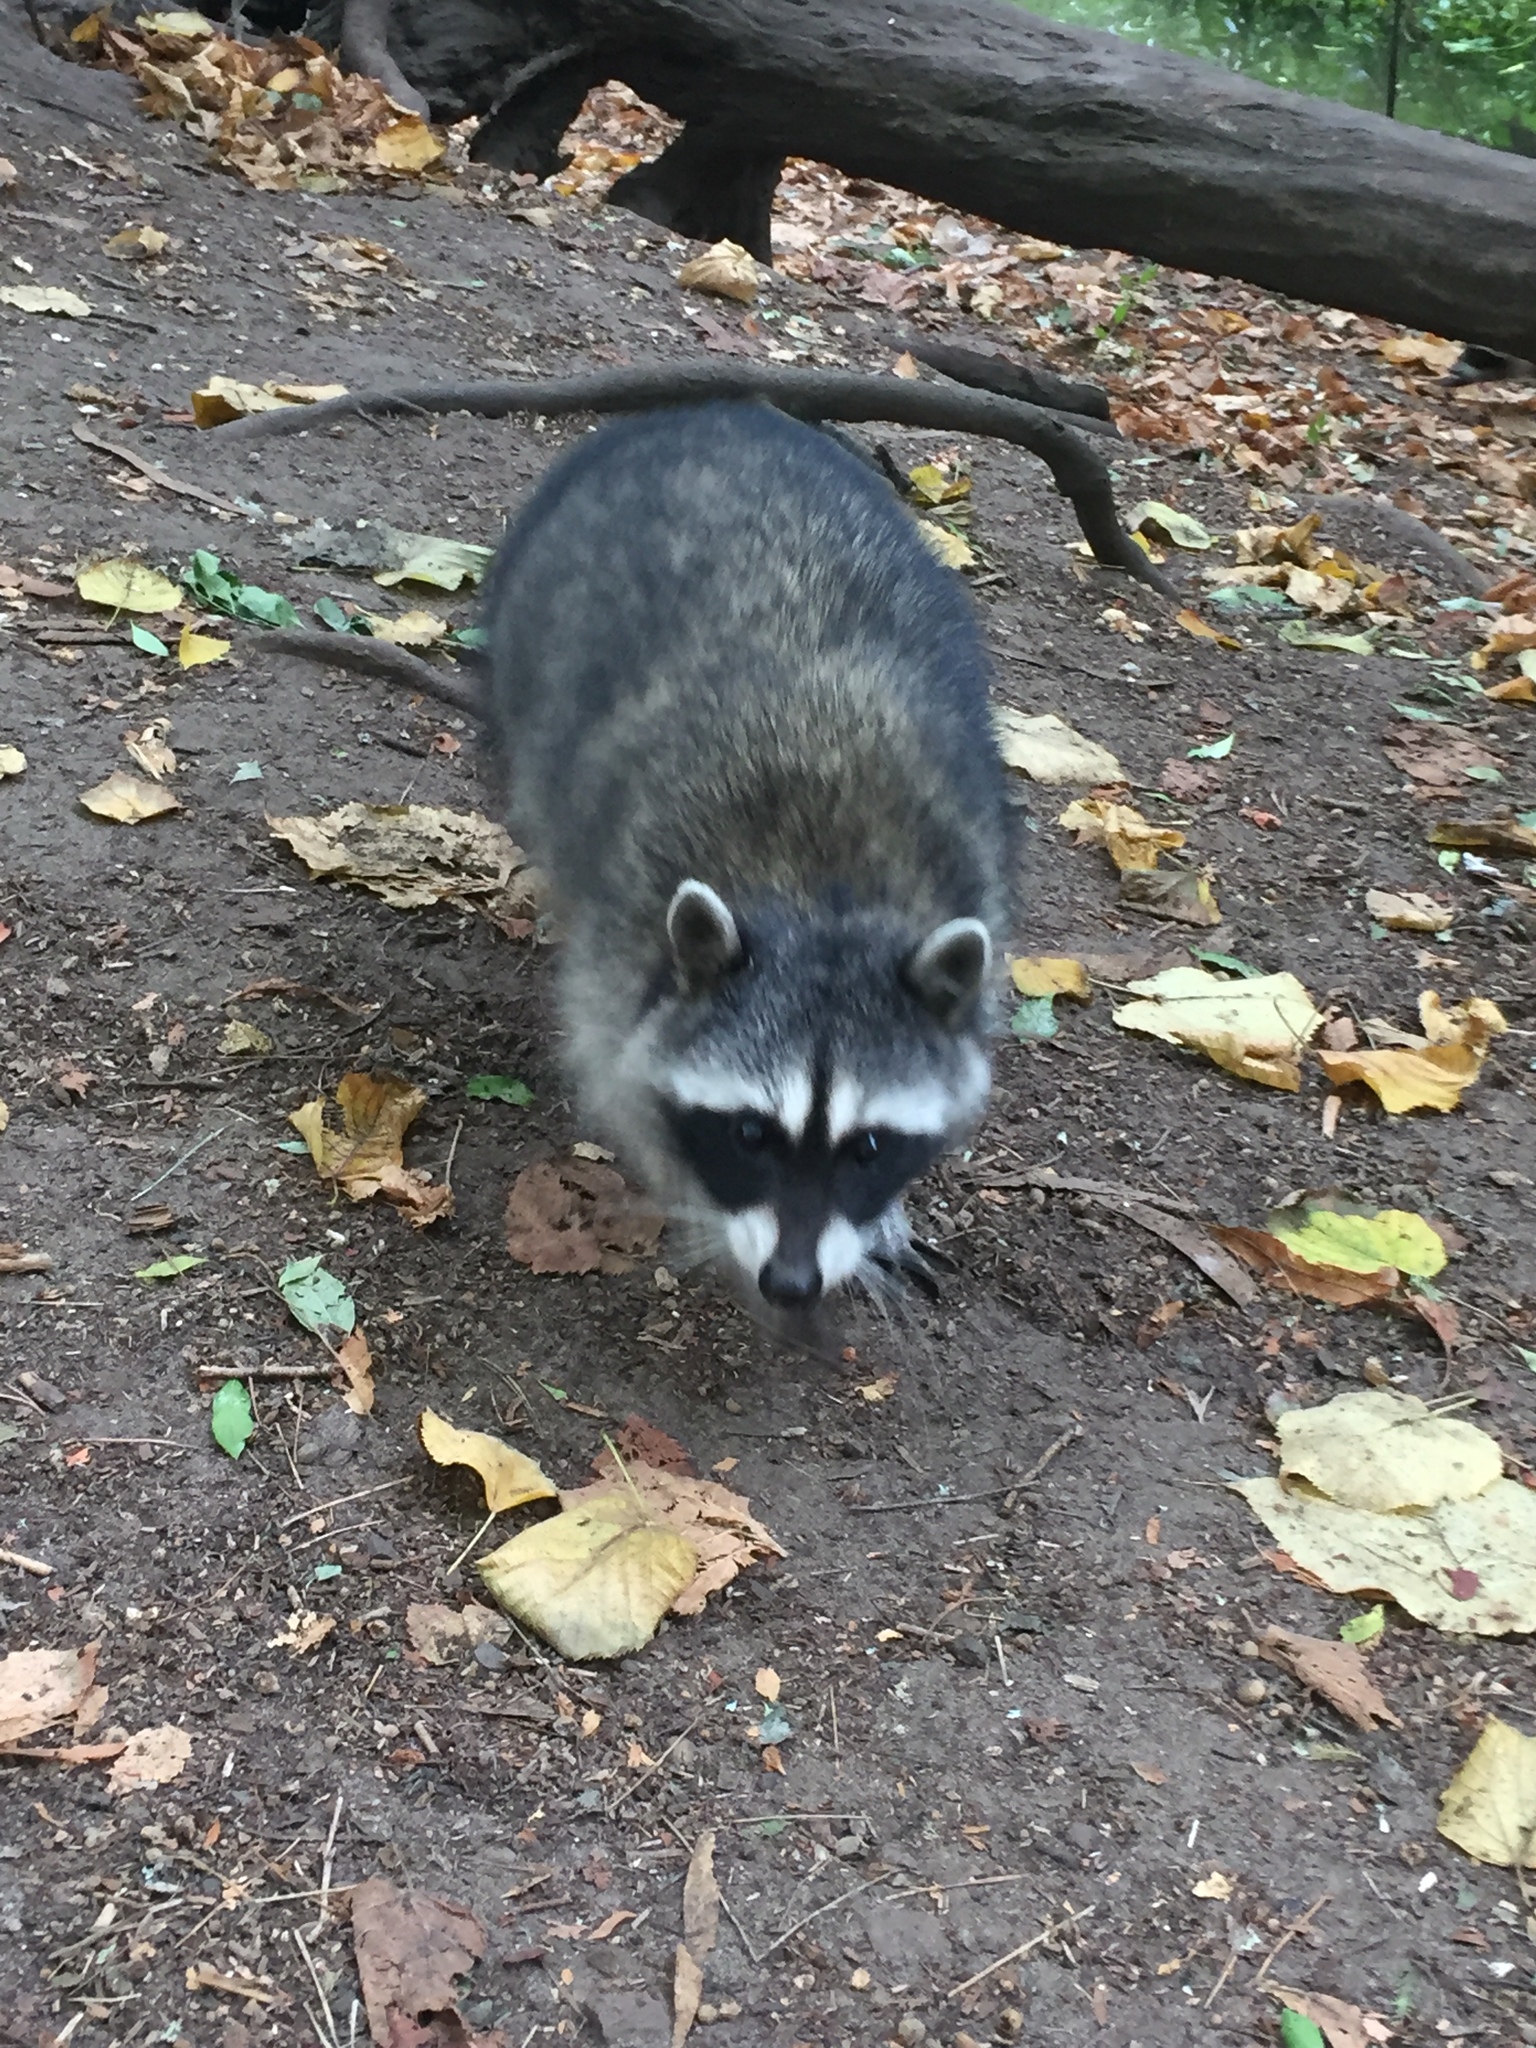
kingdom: Animalia
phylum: Chordata
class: Mammalia
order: Carnivora
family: Procyonidae
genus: Procyon
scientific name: Procyon lotor
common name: Raccoon
